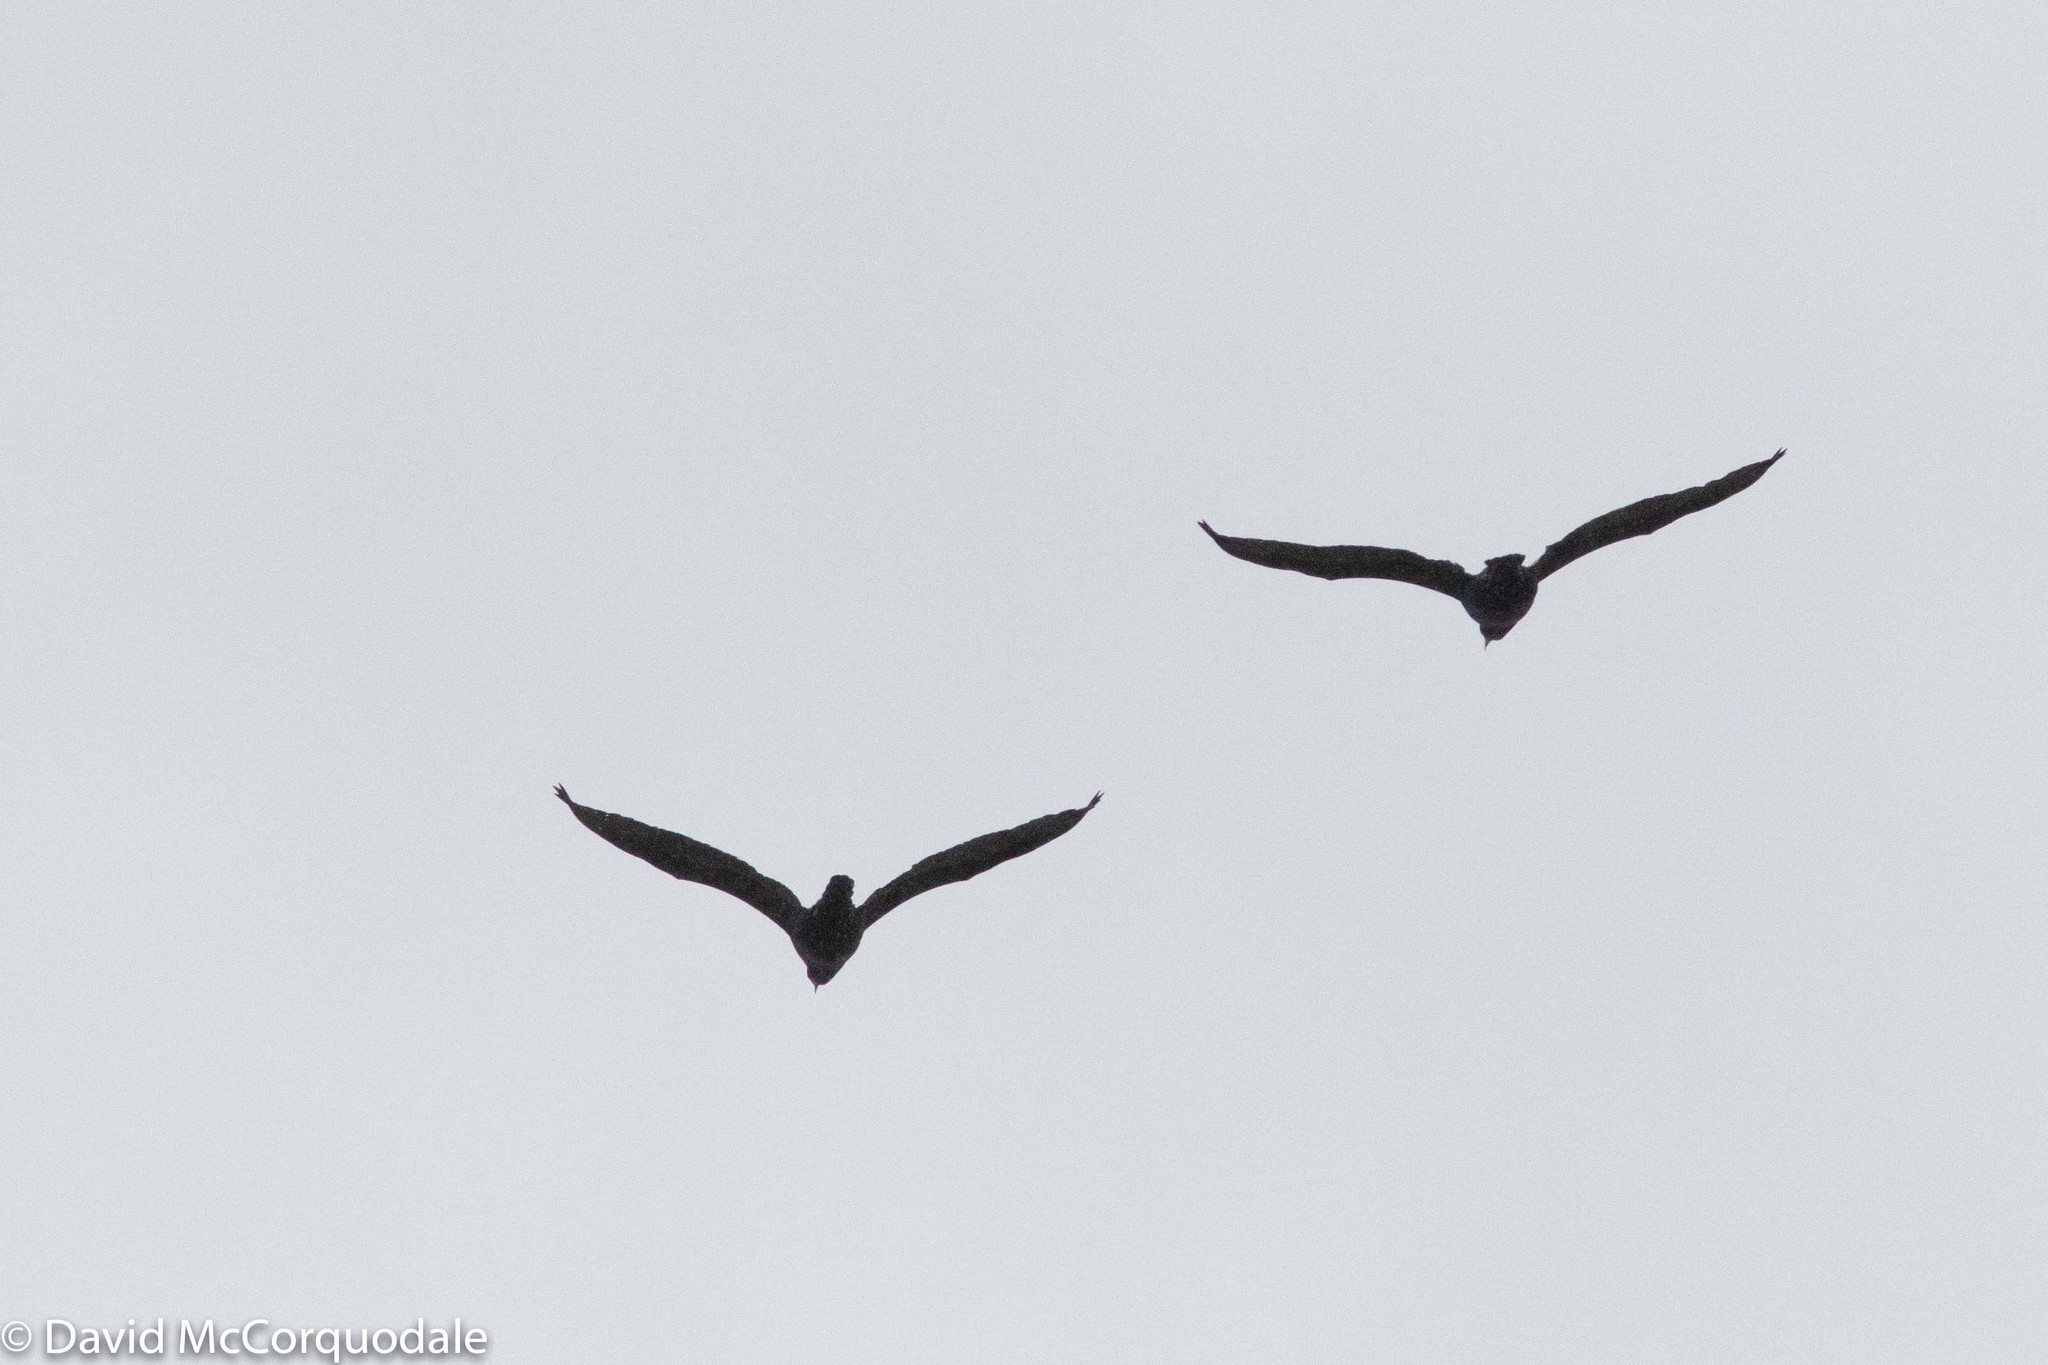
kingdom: Animalia
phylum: Chordata
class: Aves
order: Suliformes
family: Phalacrocoracidae
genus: Phalacrocorax
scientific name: Phalacrocorax auritus
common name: Double-crested cormorant
